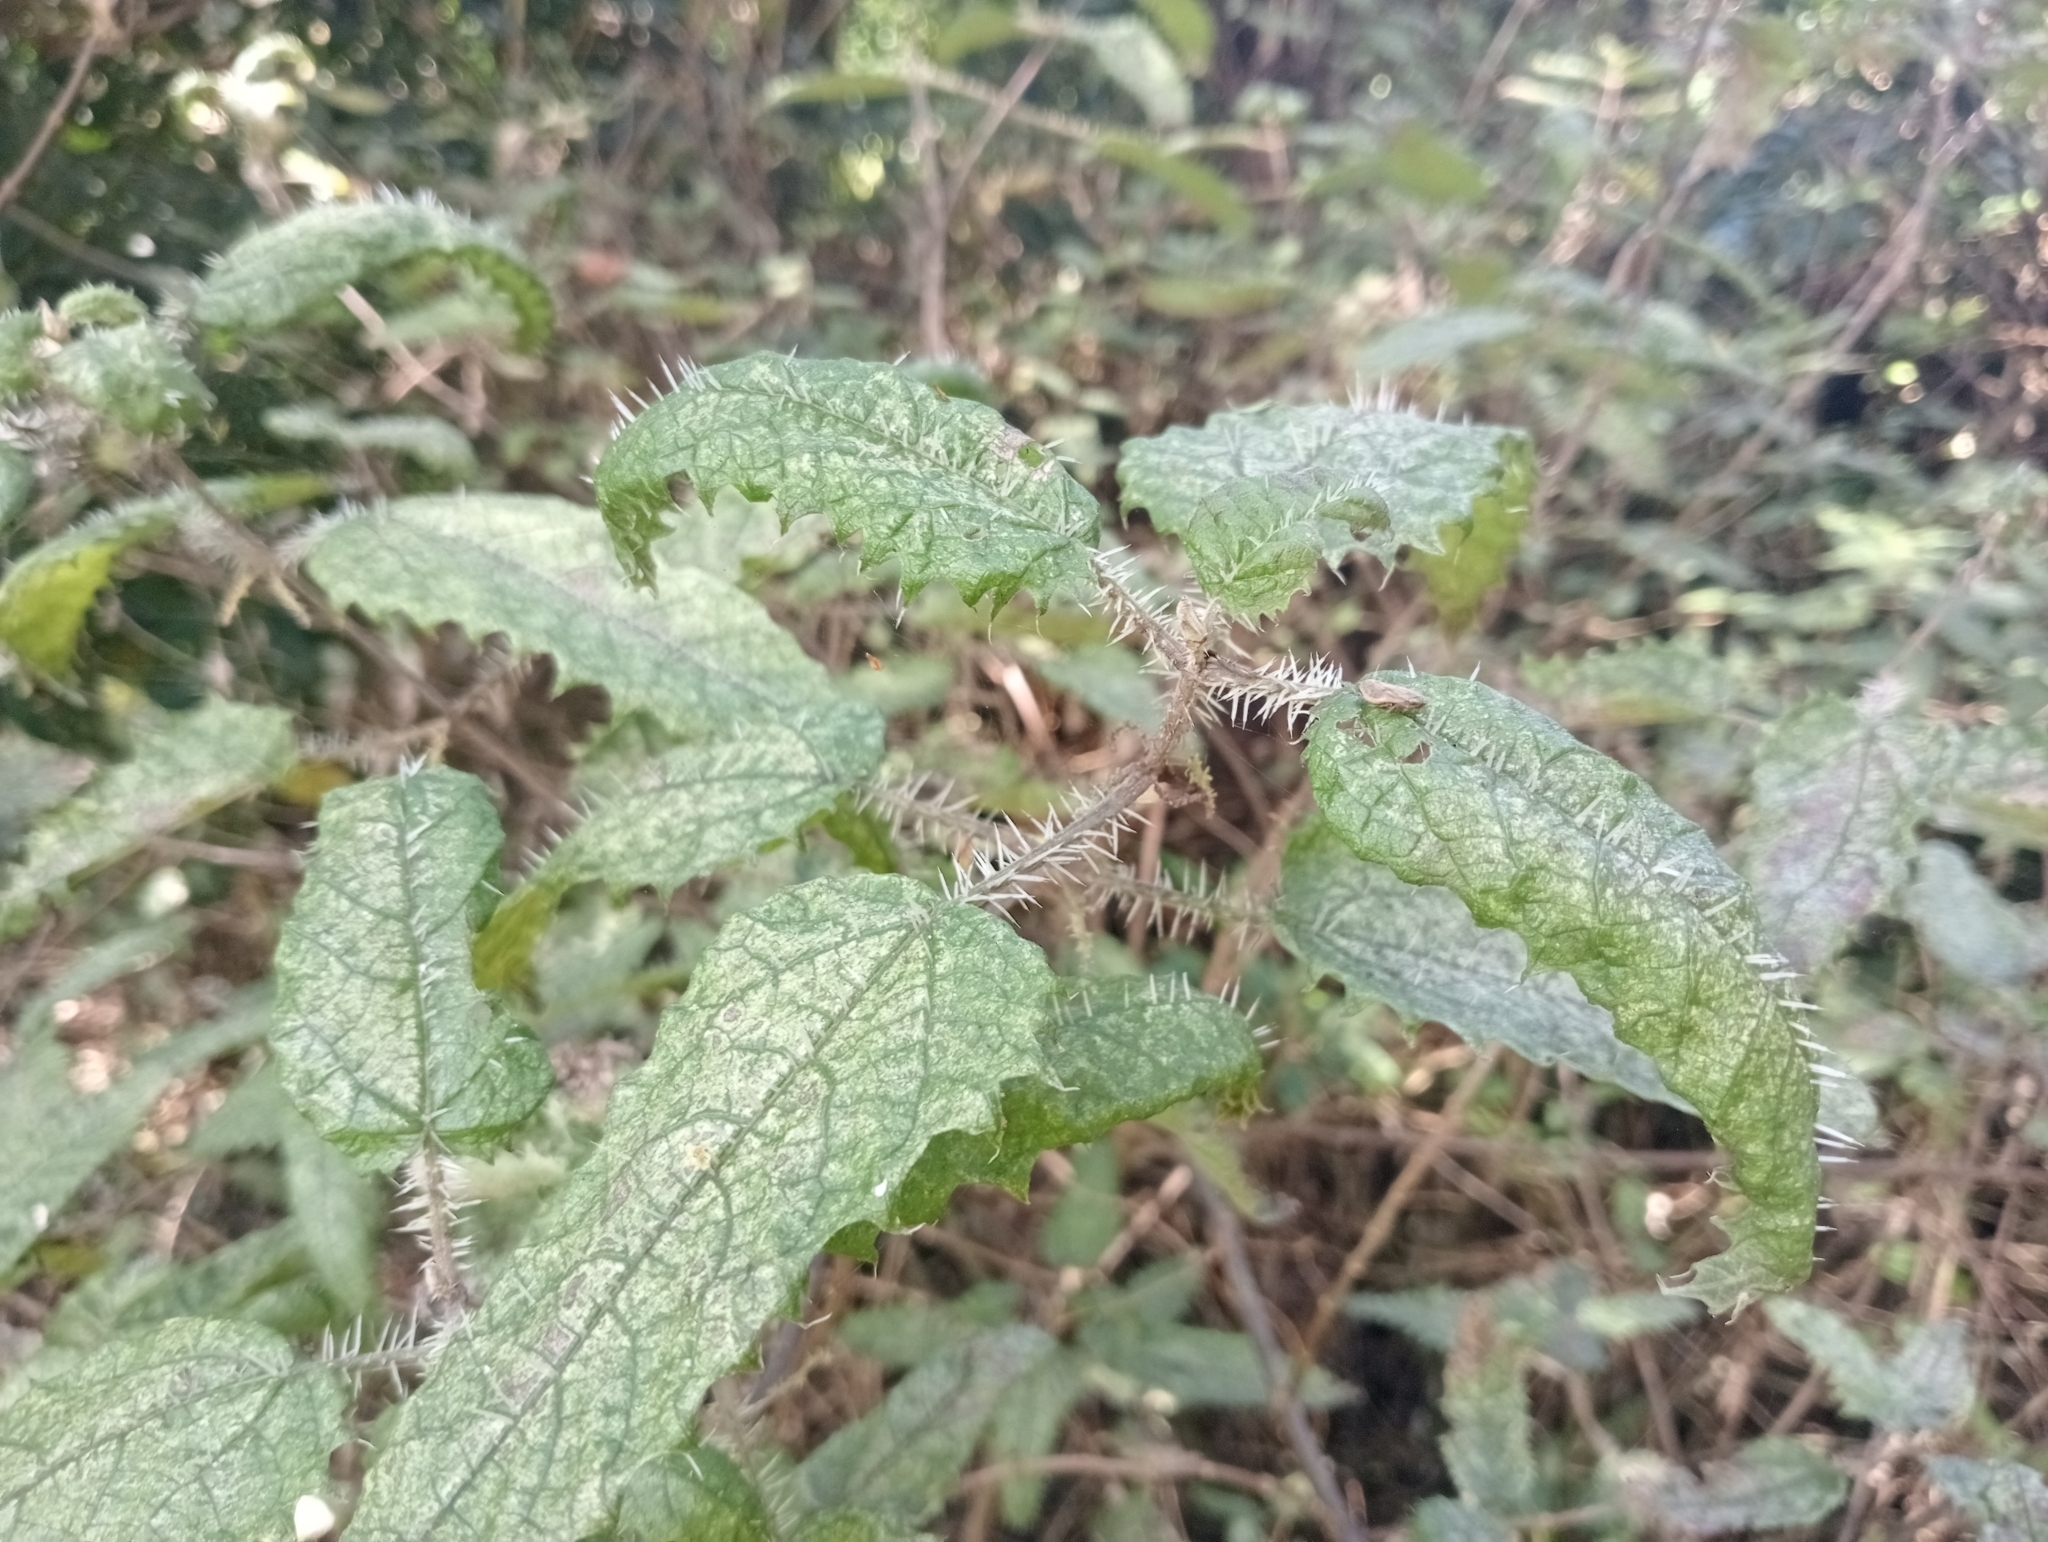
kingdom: Plantae
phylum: Tracheophyta
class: Magnoliopsida
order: Rosales
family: Urticaceae
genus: Urtica
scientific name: Urtica ferox
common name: Tree nettle
